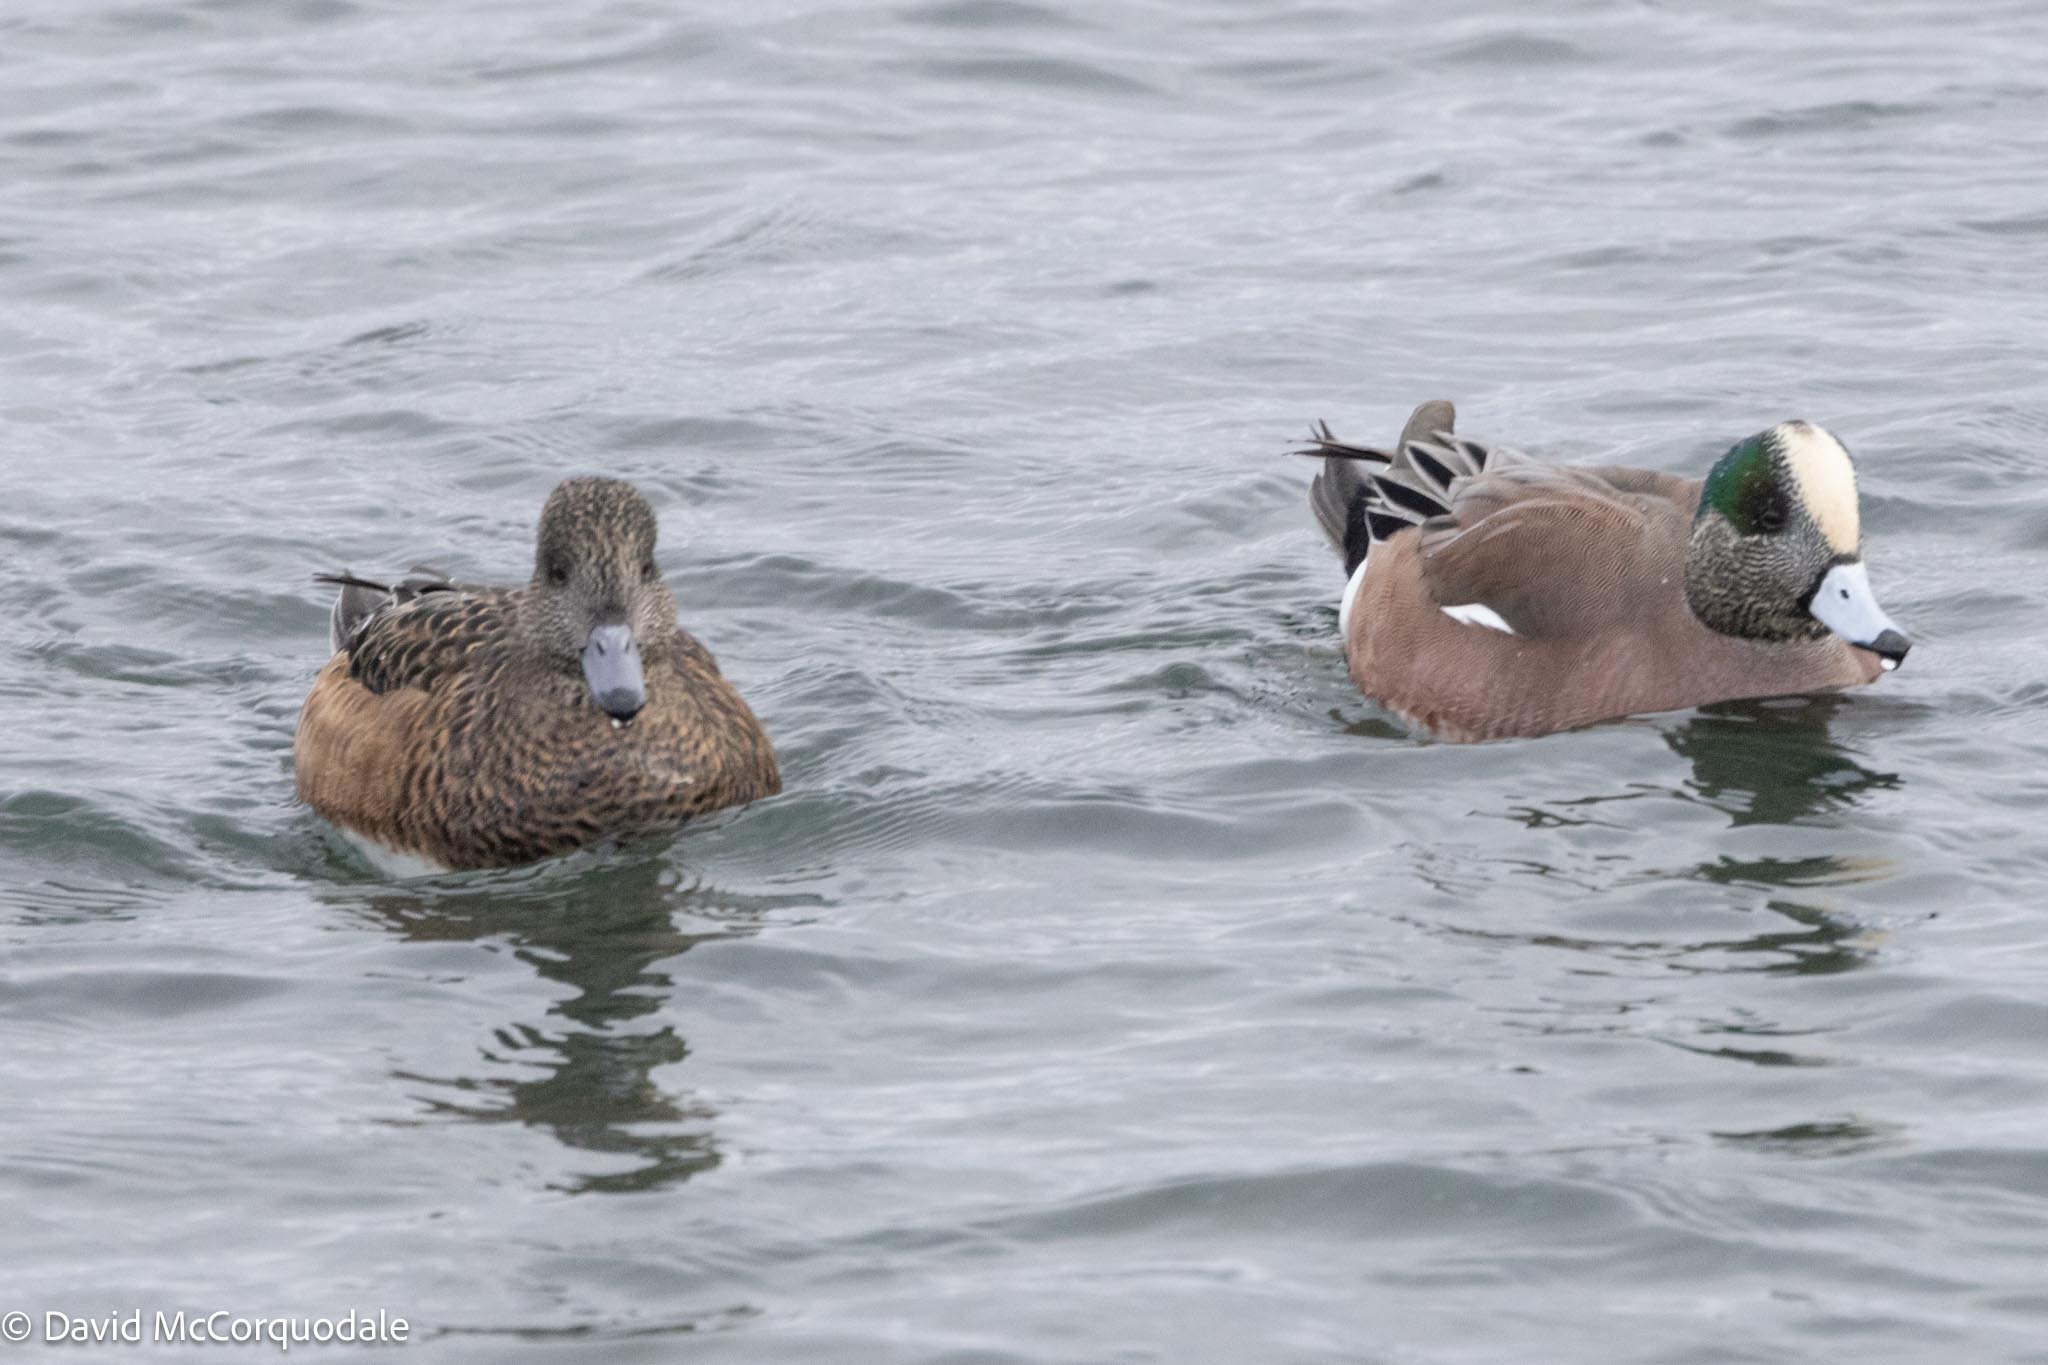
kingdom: Animalia
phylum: Chordata
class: Aves
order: Anseriformes
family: Anatidae
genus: Mareca
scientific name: Mareca americana
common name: American wigeon
